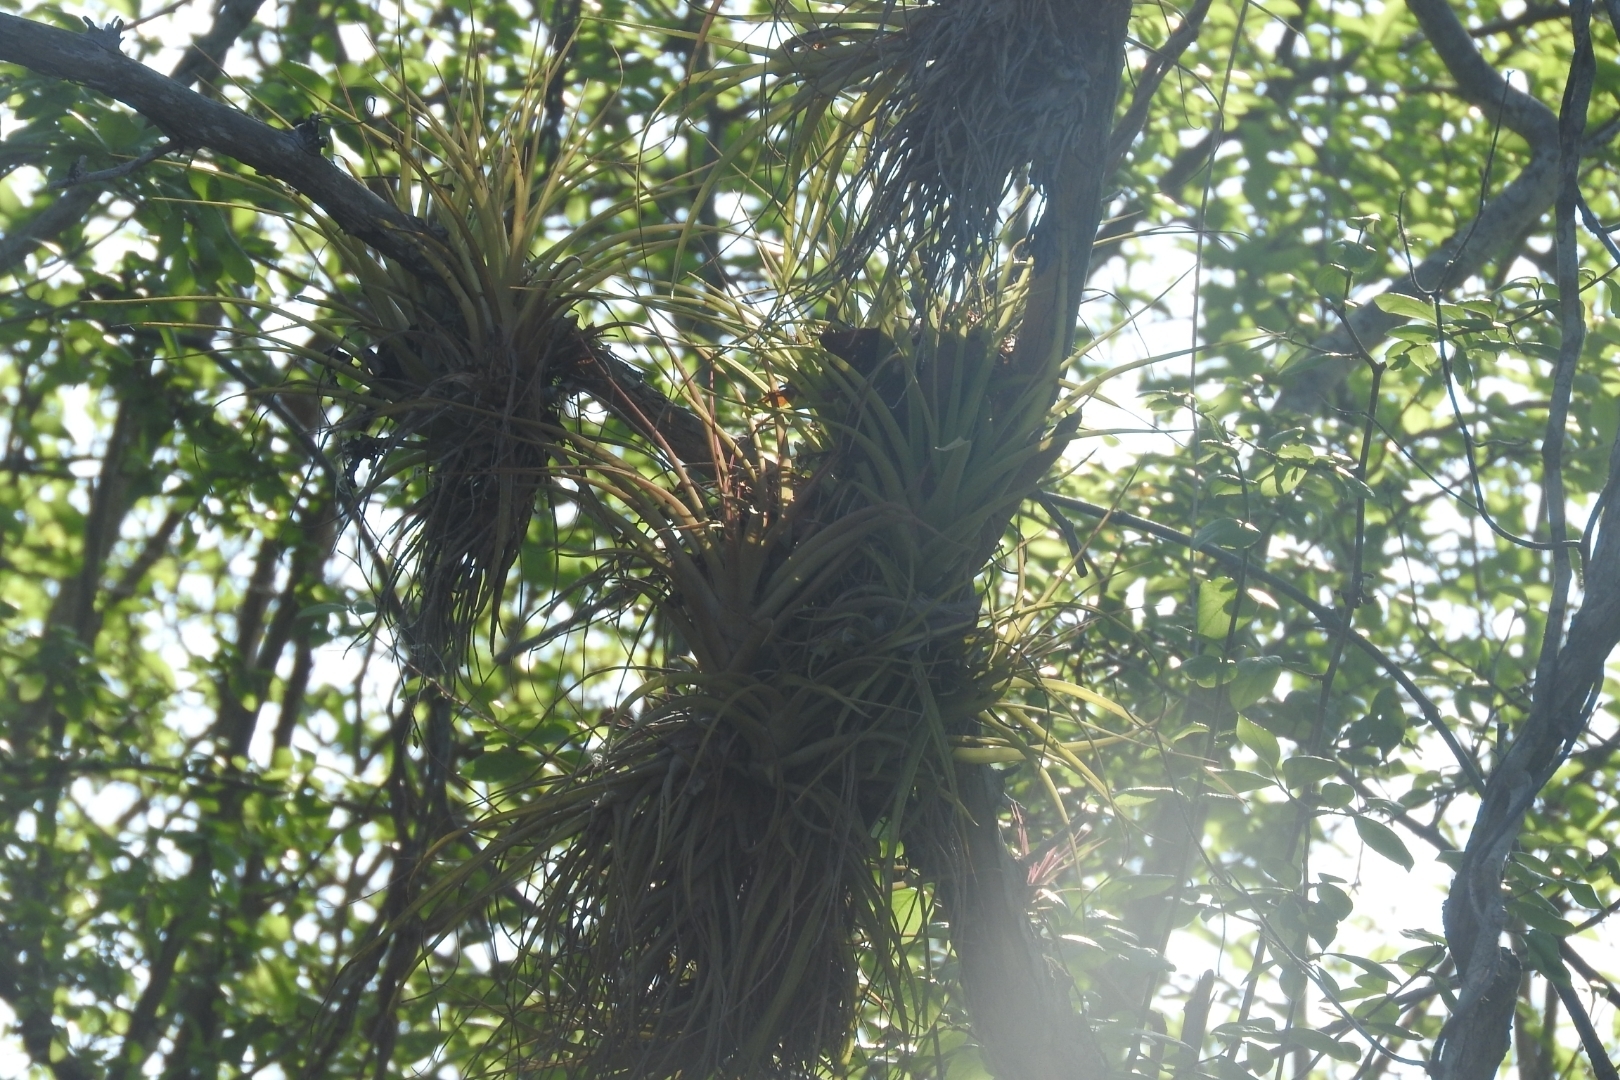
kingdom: Plantae
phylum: Tracheophyta
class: Liliopsida
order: Poales
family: Bromeliaceae
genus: Tillandsia
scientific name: Tillandsia fasciculata
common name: Giant airplant
